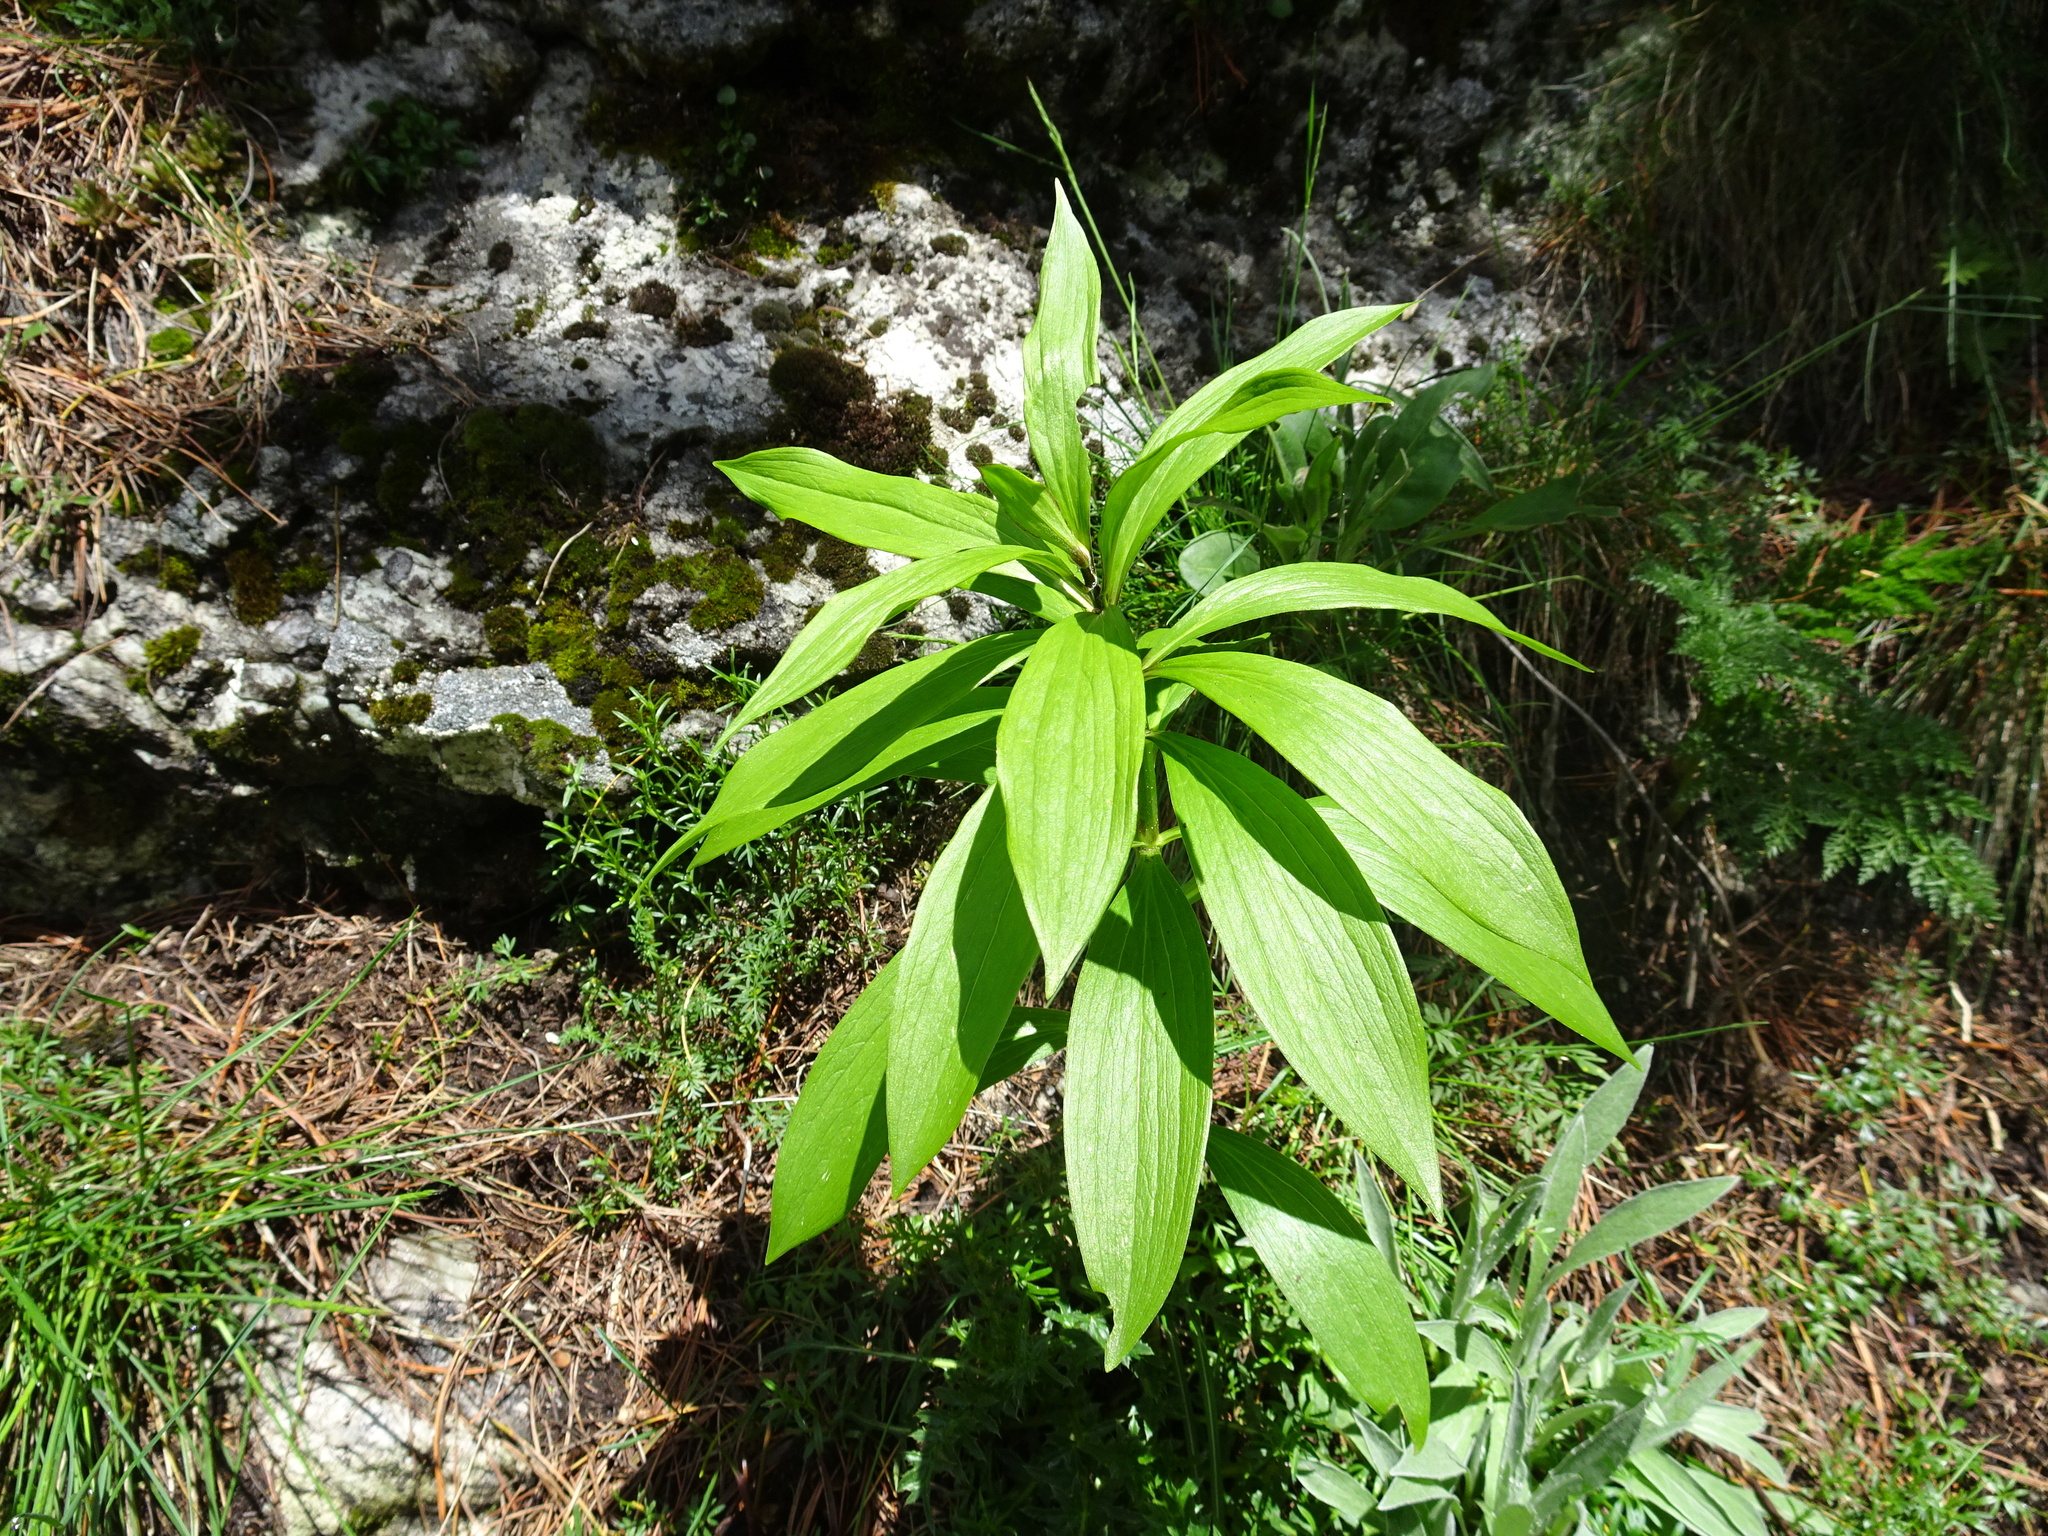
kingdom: Plantae
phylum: Tracheophyta
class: Liliopsida
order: Liliales
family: Liliaceae
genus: Lilium
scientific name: Lilium martagon
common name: Martagon lily
